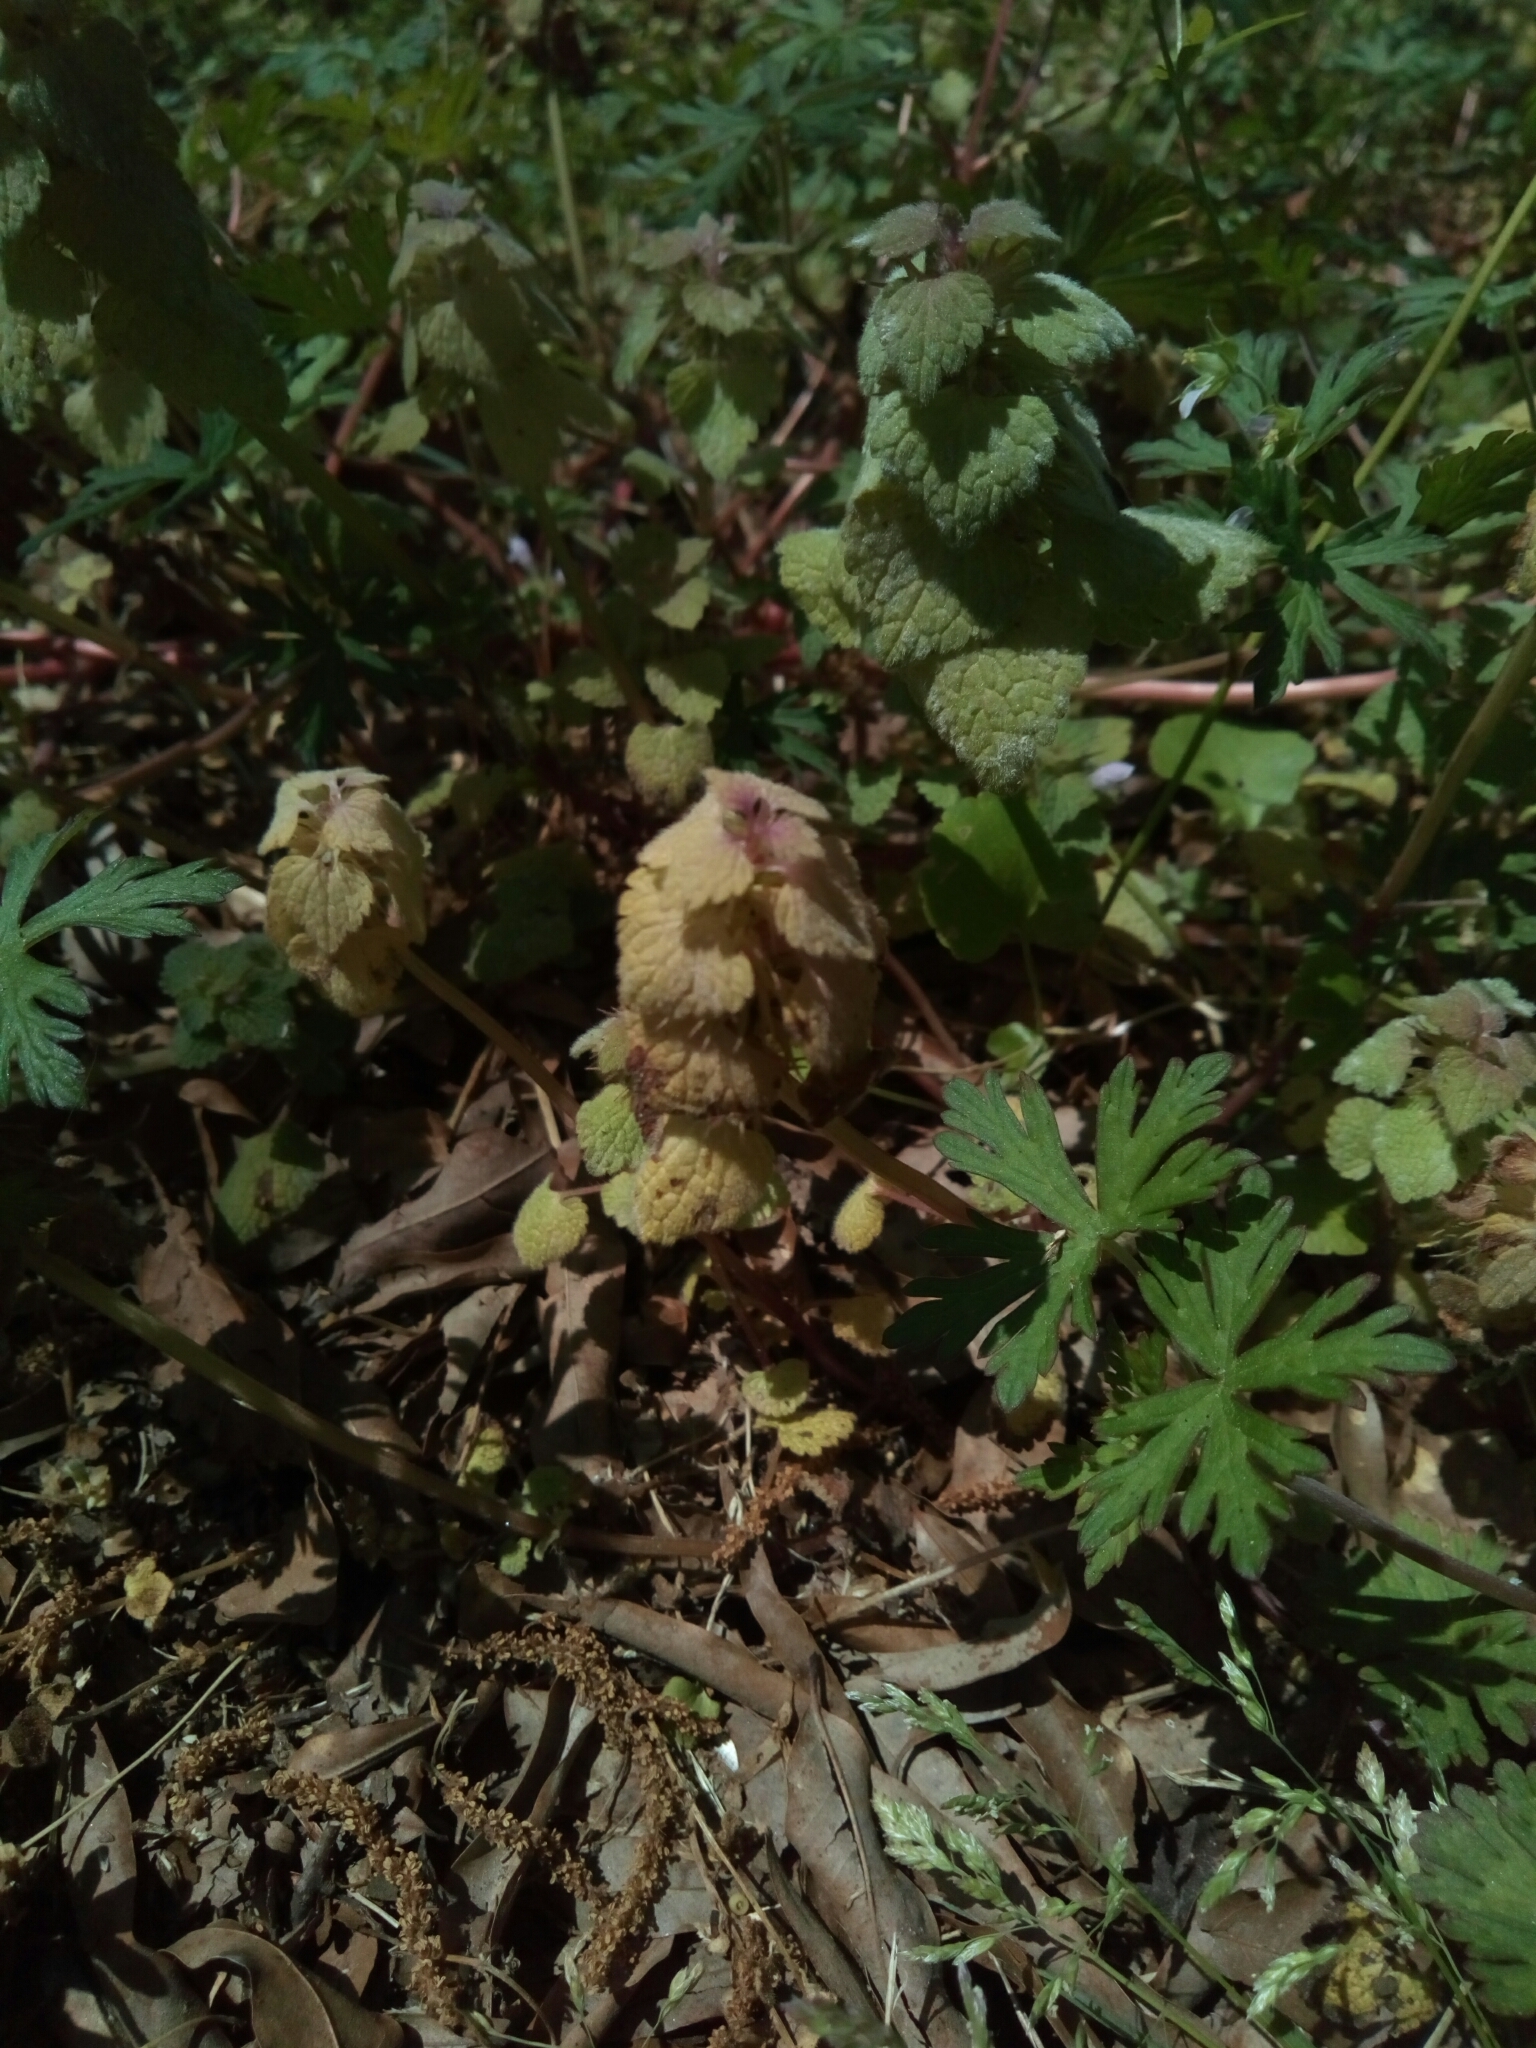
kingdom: Plantae
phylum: Tracheophyta
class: Magnoliopsida
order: Lamiales
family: Lamiaceae
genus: Lamium
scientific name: Lamium purpureum
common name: Red dead-nettle
